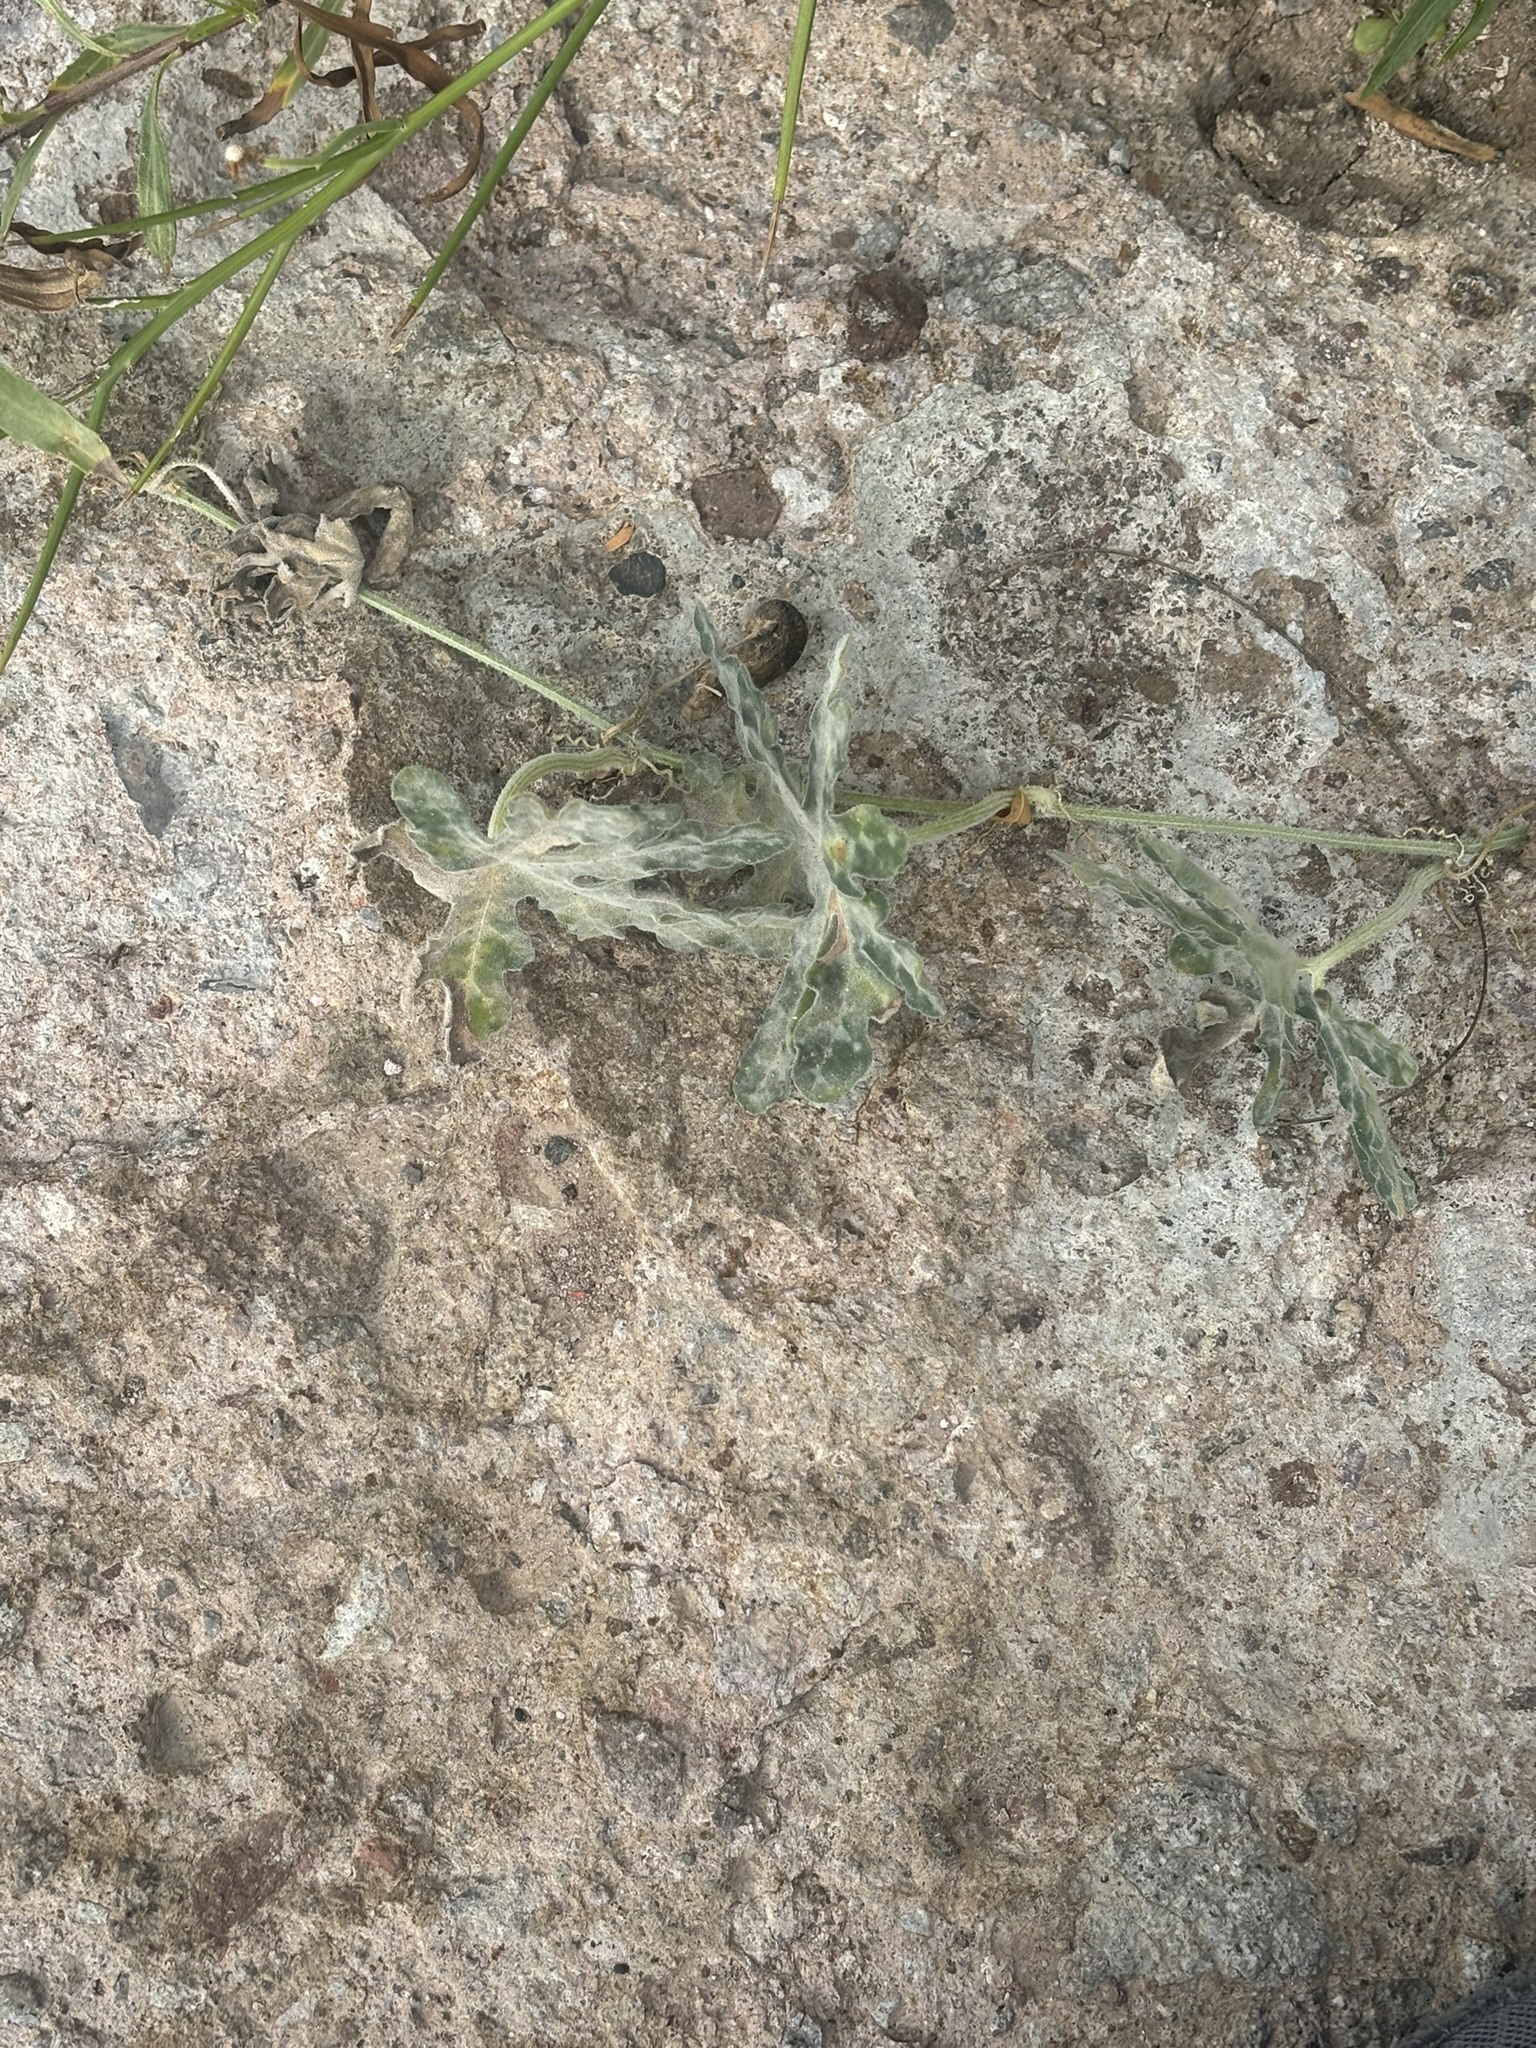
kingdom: Plantae
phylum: Tracheophyta
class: Magnoliopsida
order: Cucurbitales
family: Cucurbitaceae
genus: Cucurbita
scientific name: Cucurbita cordata
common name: Coyote gourd
